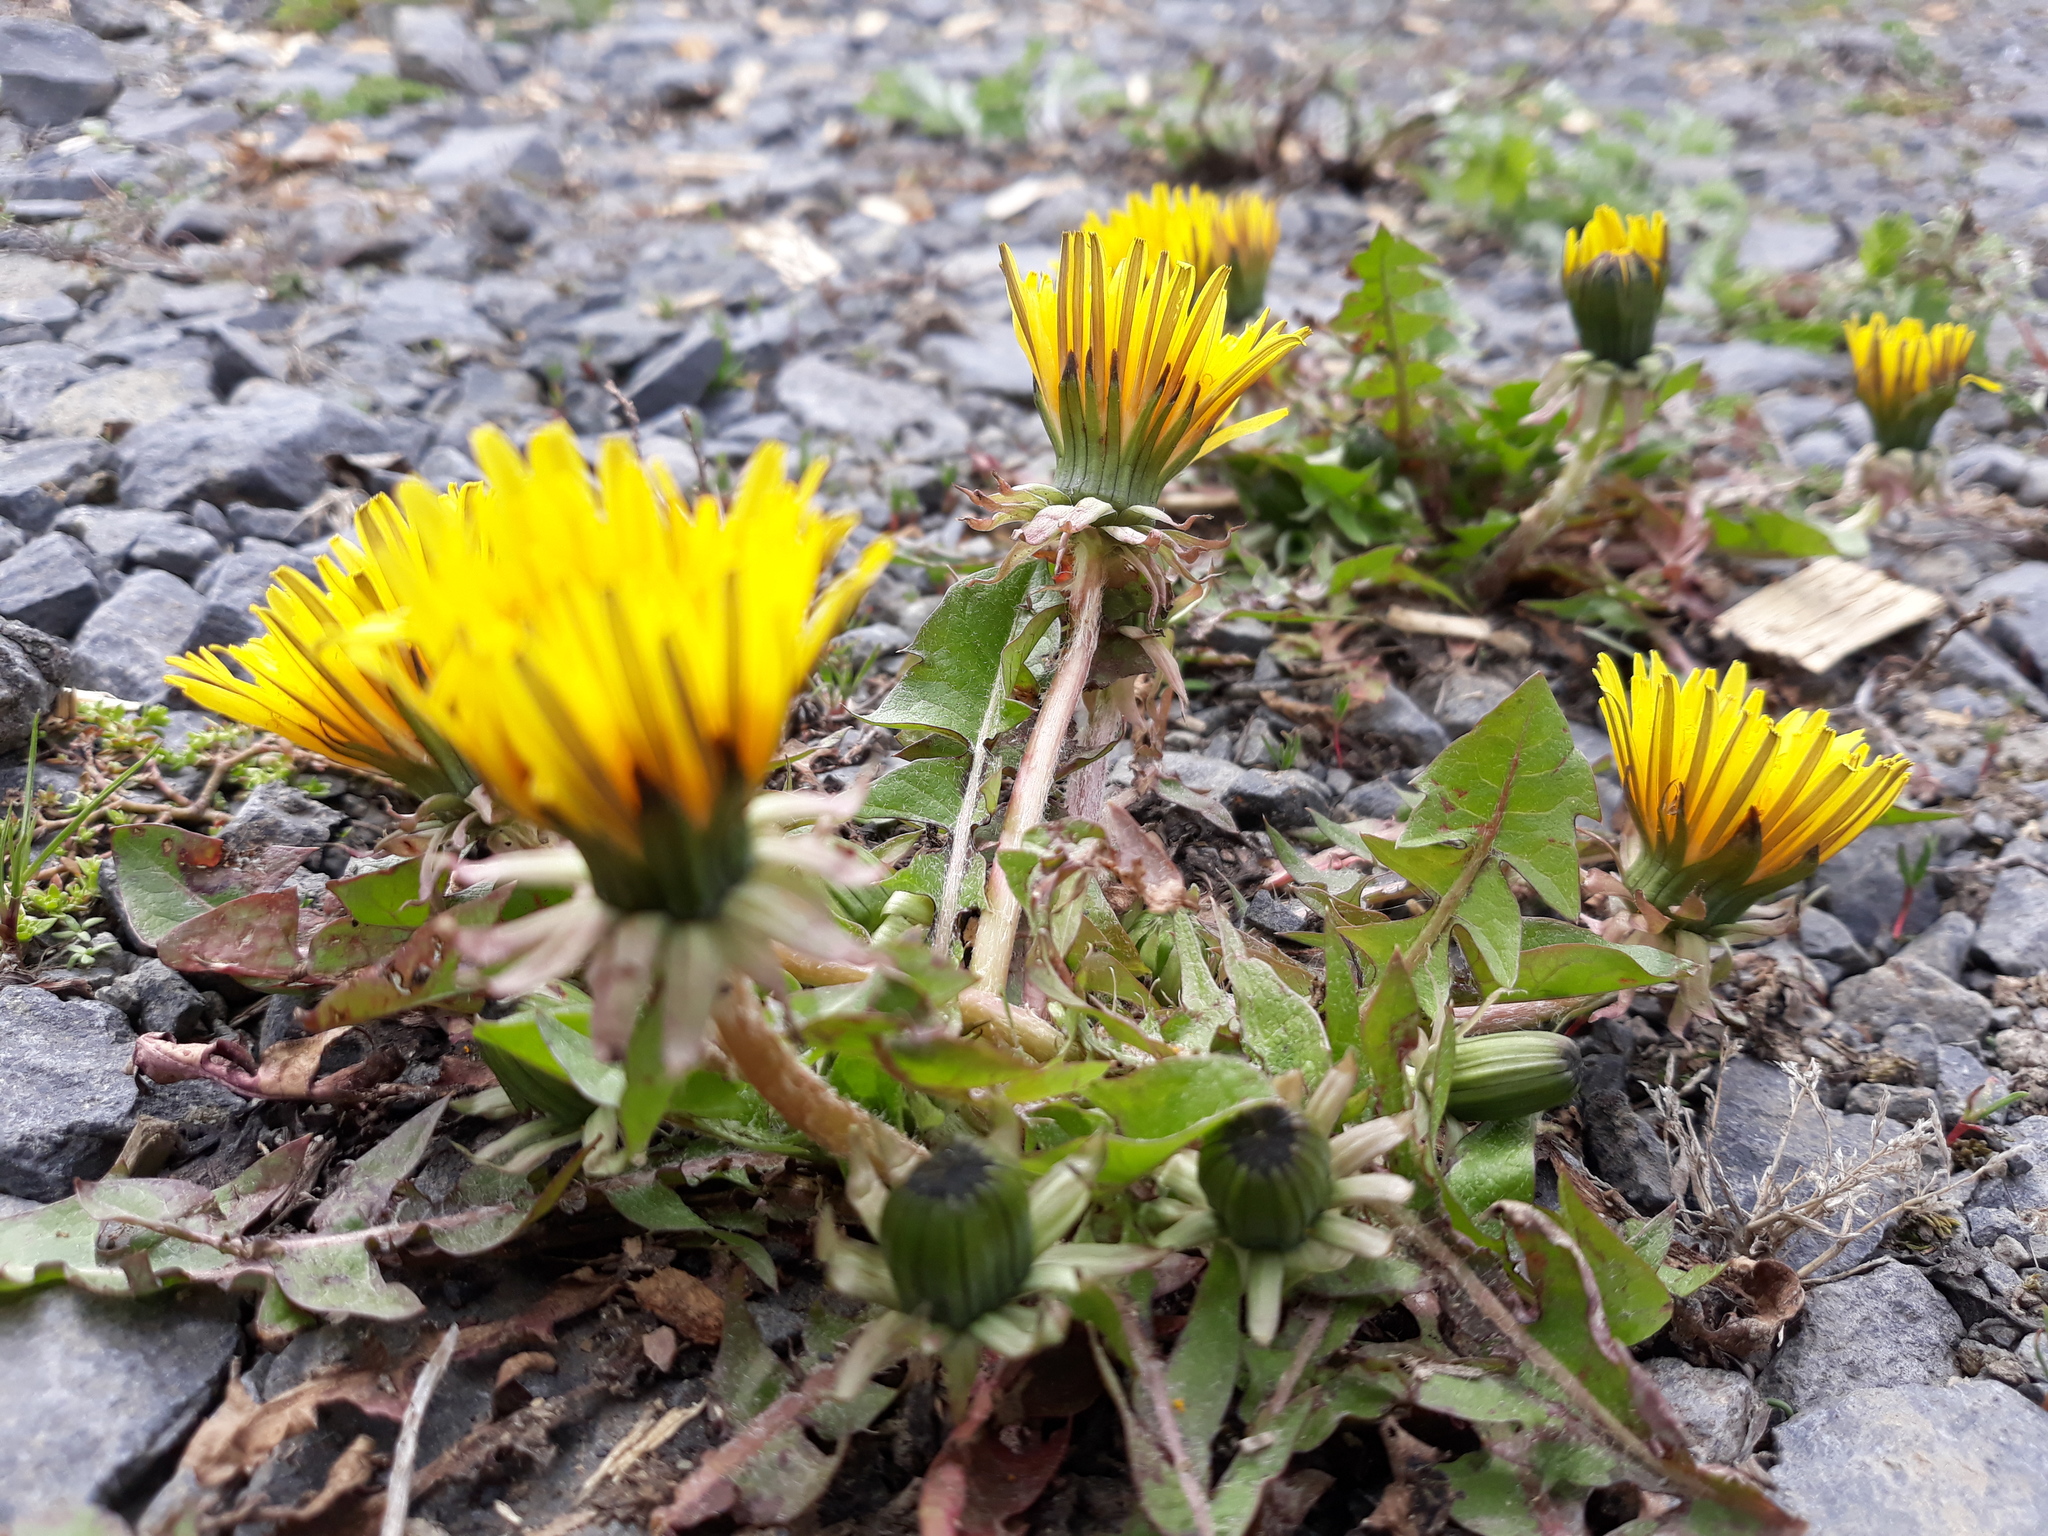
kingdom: Plantae
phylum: Tracheophyta
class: Magnoliopsida
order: Asterales
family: Asteraceae
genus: Taraxacum
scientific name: Taraxacum officinale
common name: Common dandelion
